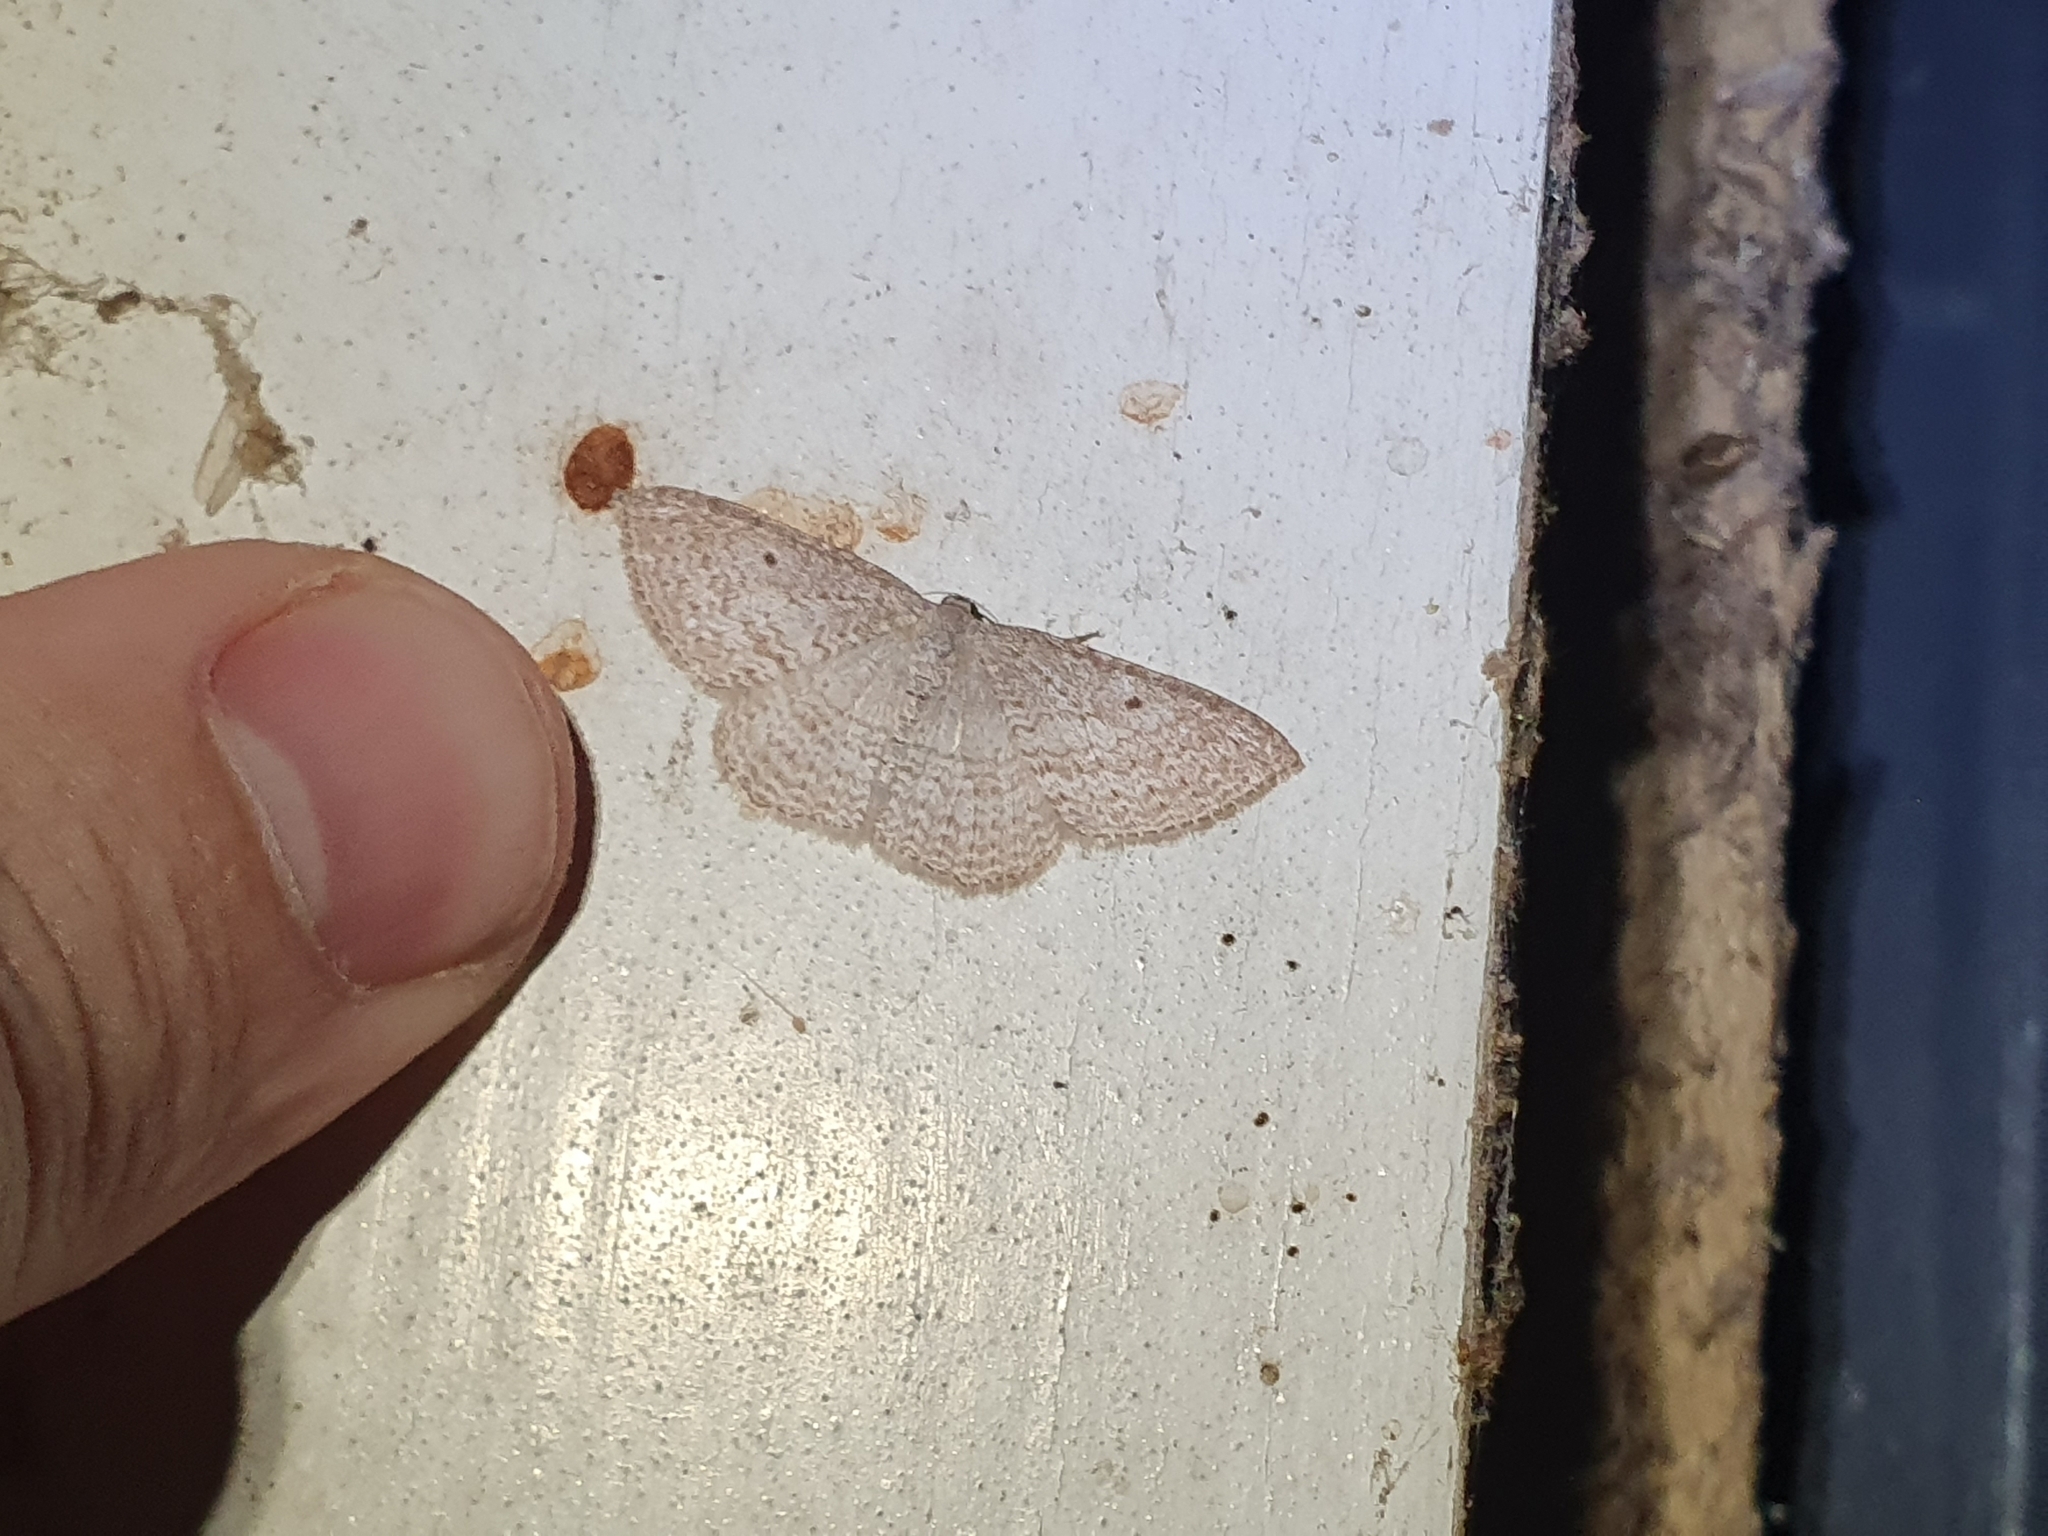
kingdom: Animalia
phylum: Arthropoda
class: Insecta
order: Lepidoptera
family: Geometridae
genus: Poecilasthena
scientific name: Poecilasthena pulchraria
